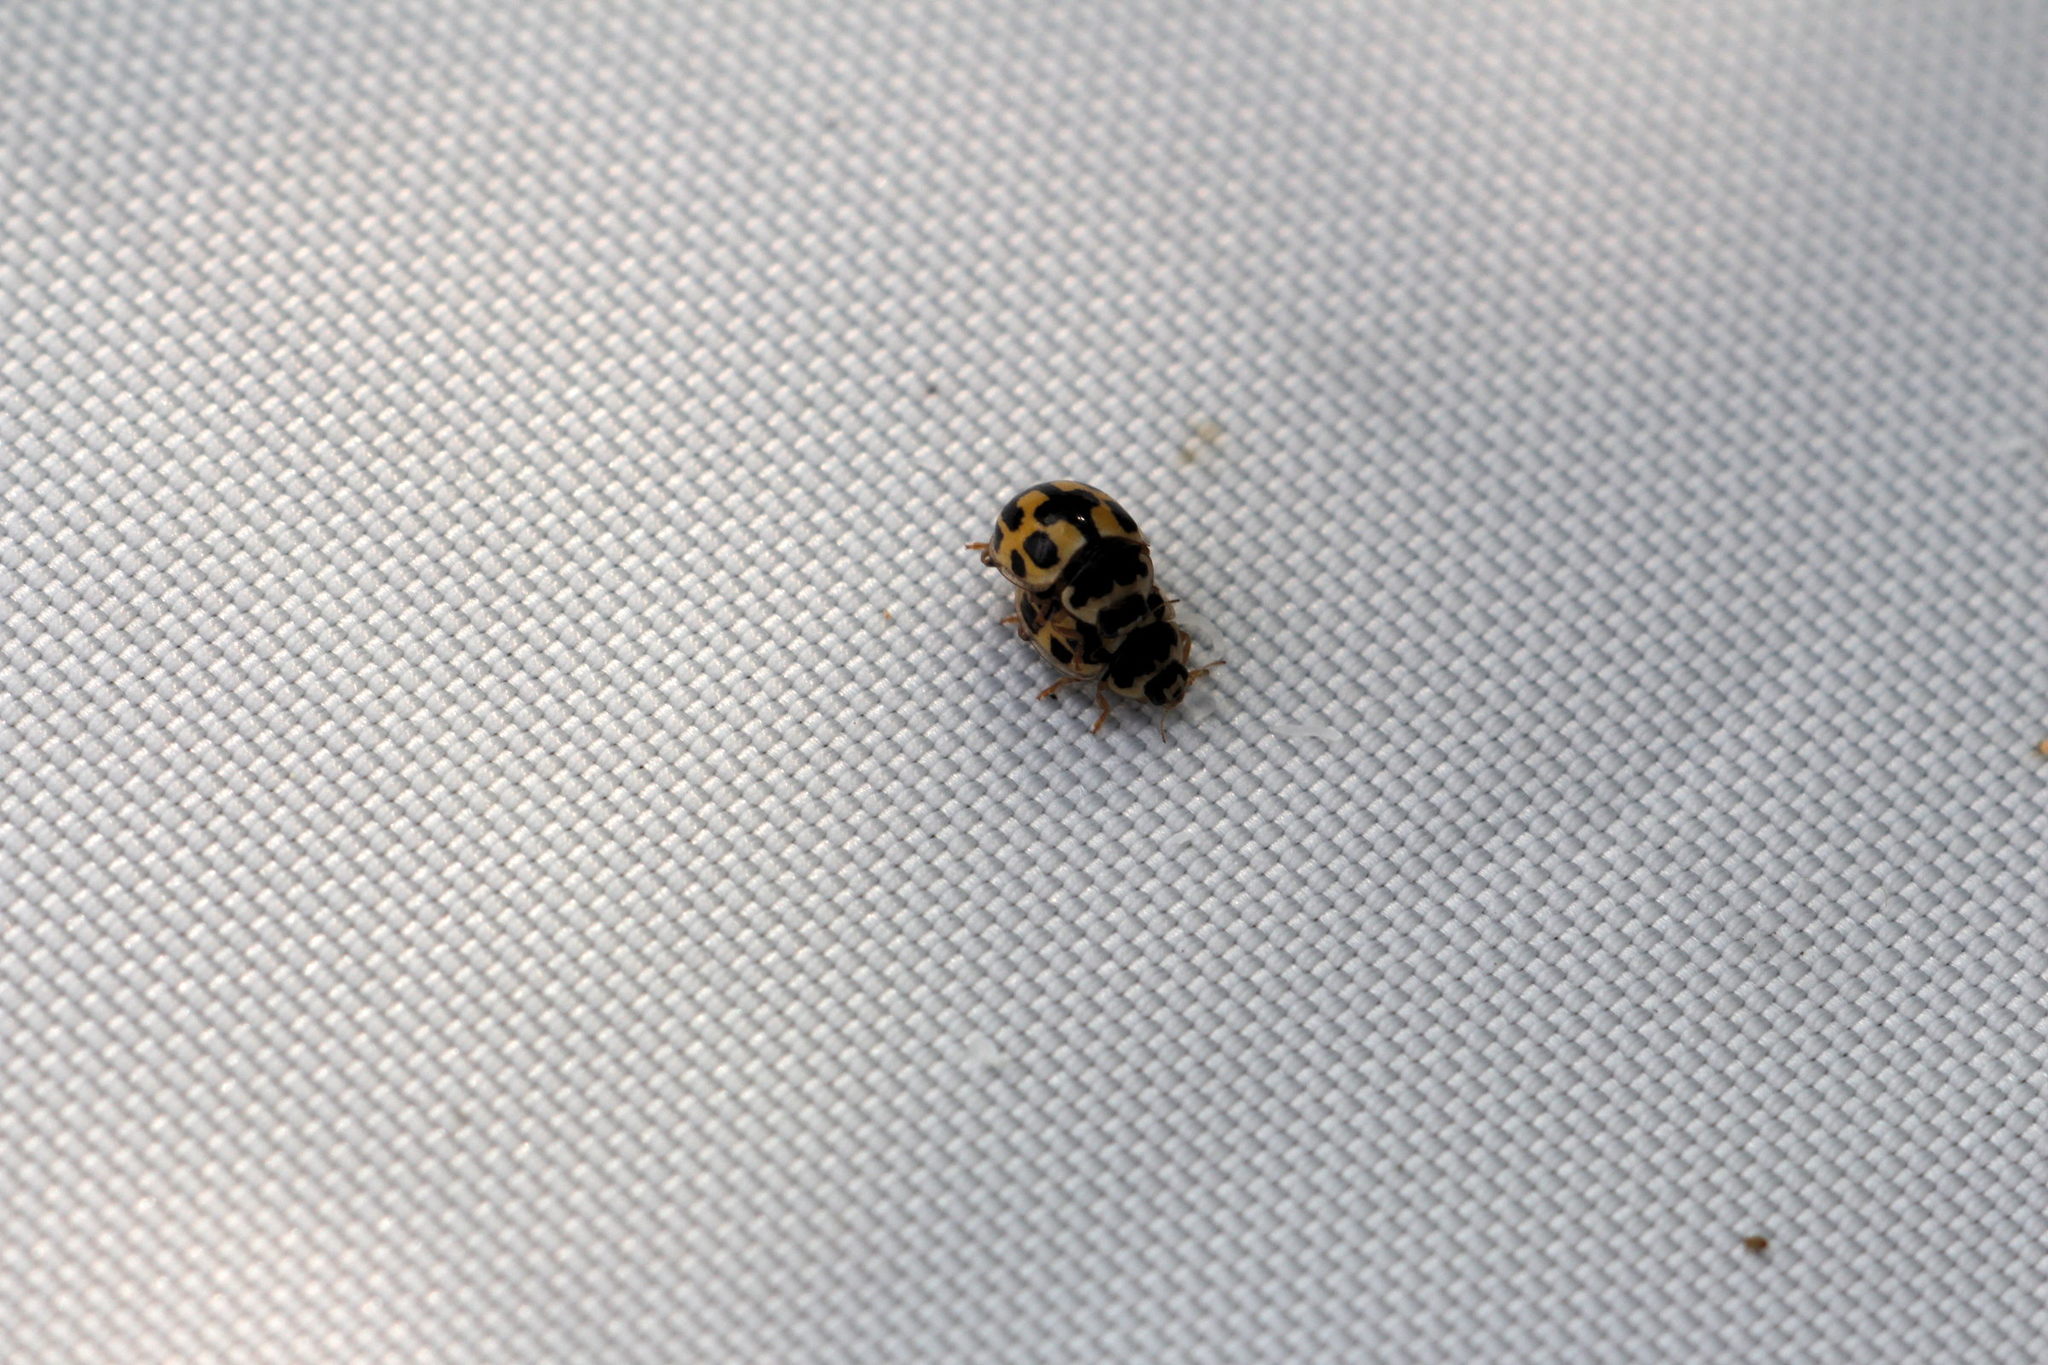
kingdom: Animalia
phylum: Arthropoda
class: Insecta
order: Coleoptera
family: Coccinellidae
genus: Propylaea
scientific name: Propylaea quatuordecimpunctata
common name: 14-spotted ladybird beetle
